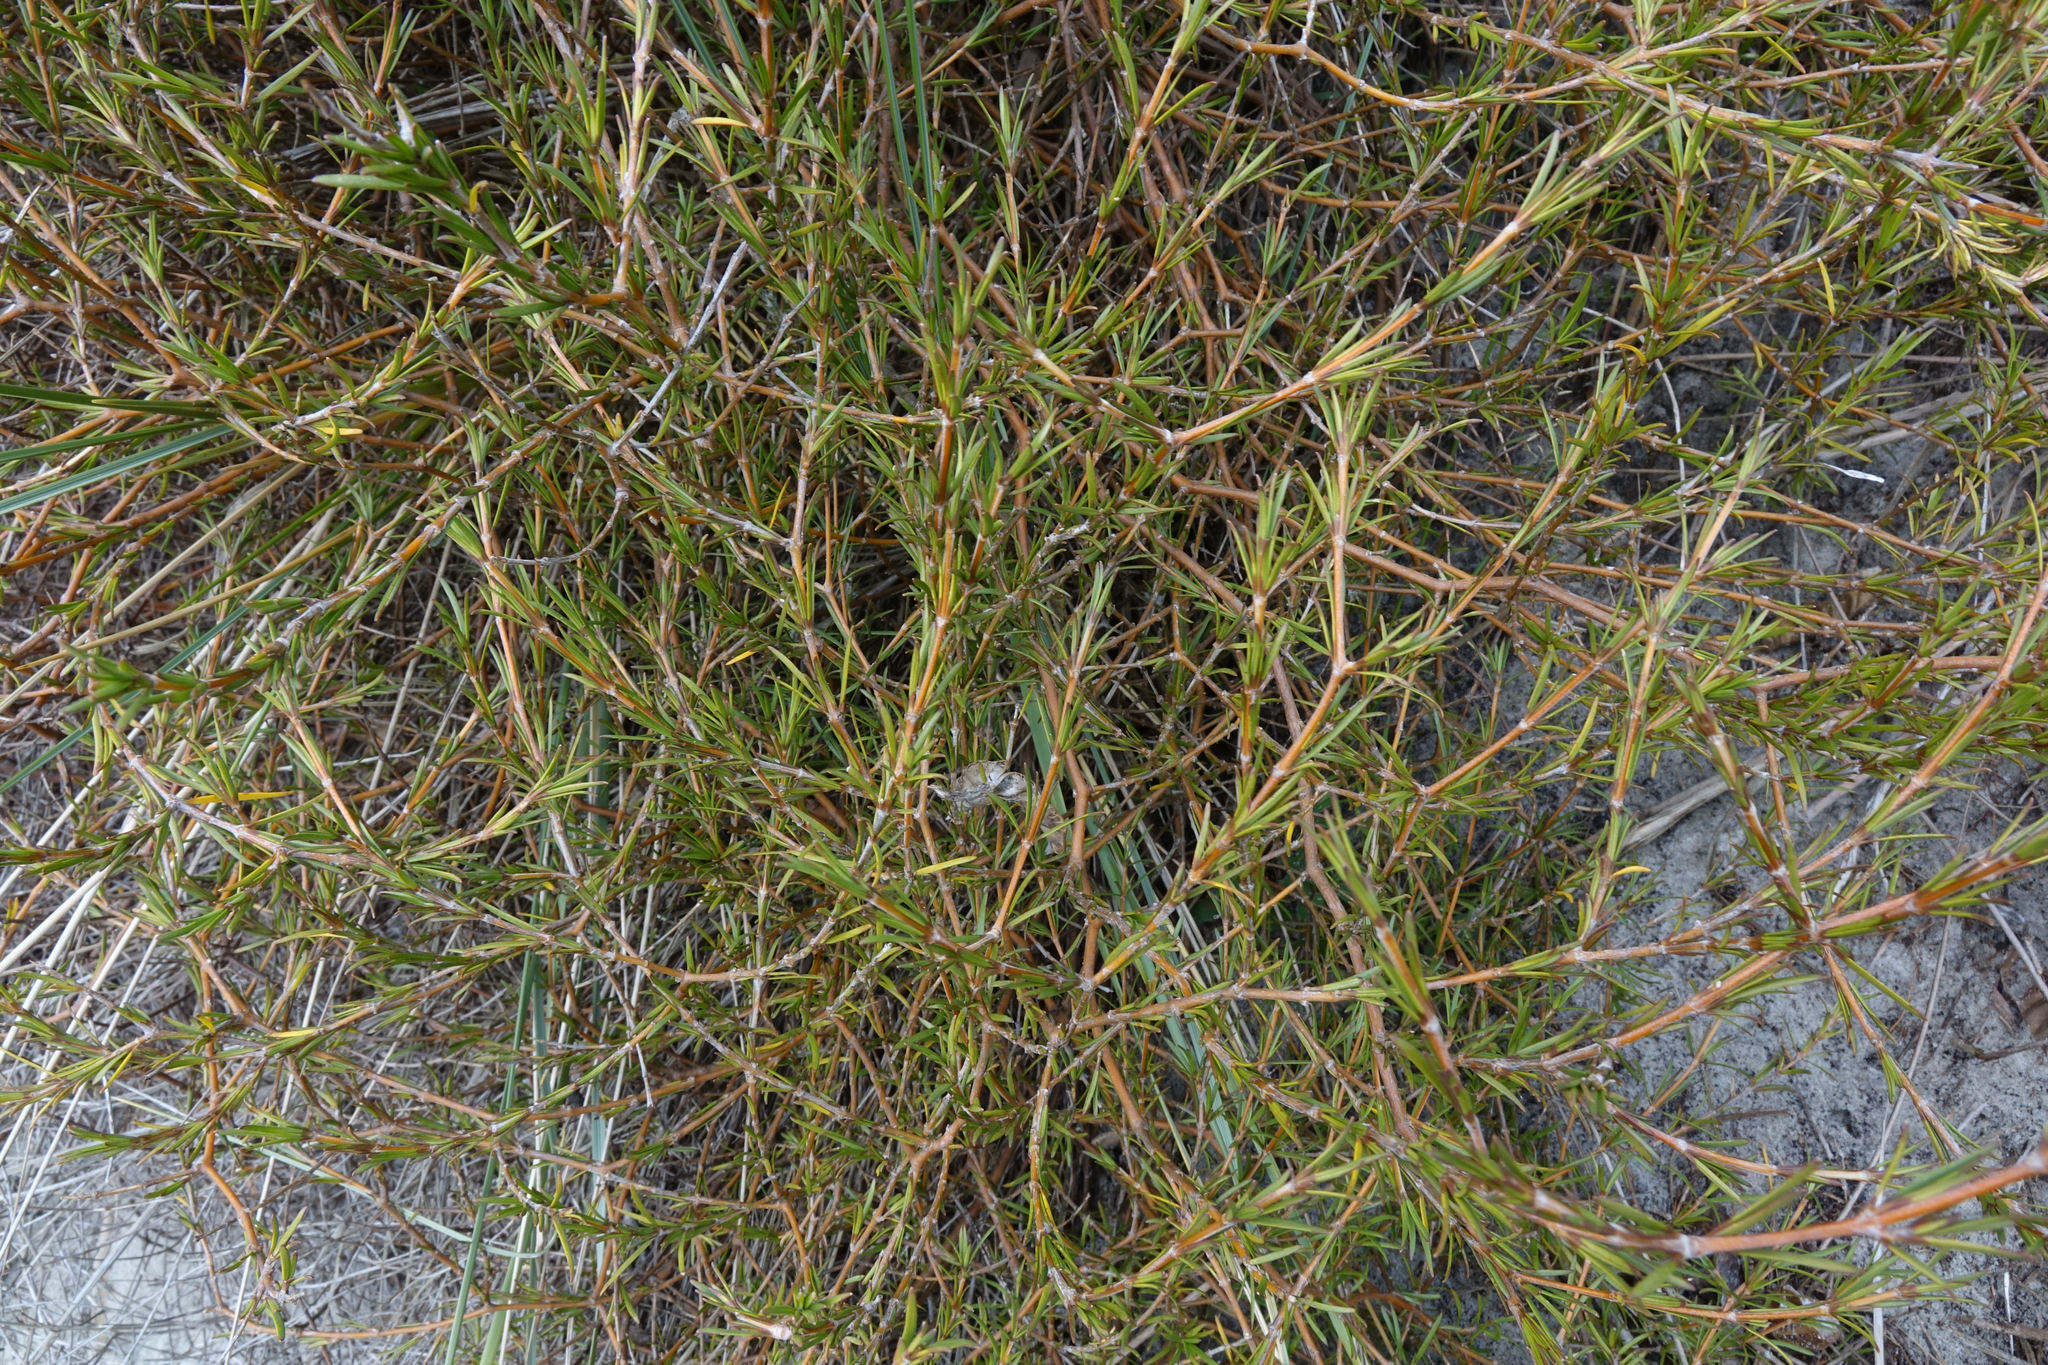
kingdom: Plantae
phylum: Tracheophyta
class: Magnoliopsida
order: Gentianales
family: Rubiaceae
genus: Coprosma
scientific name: Coprosma acerosa
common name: Sand coprosma
